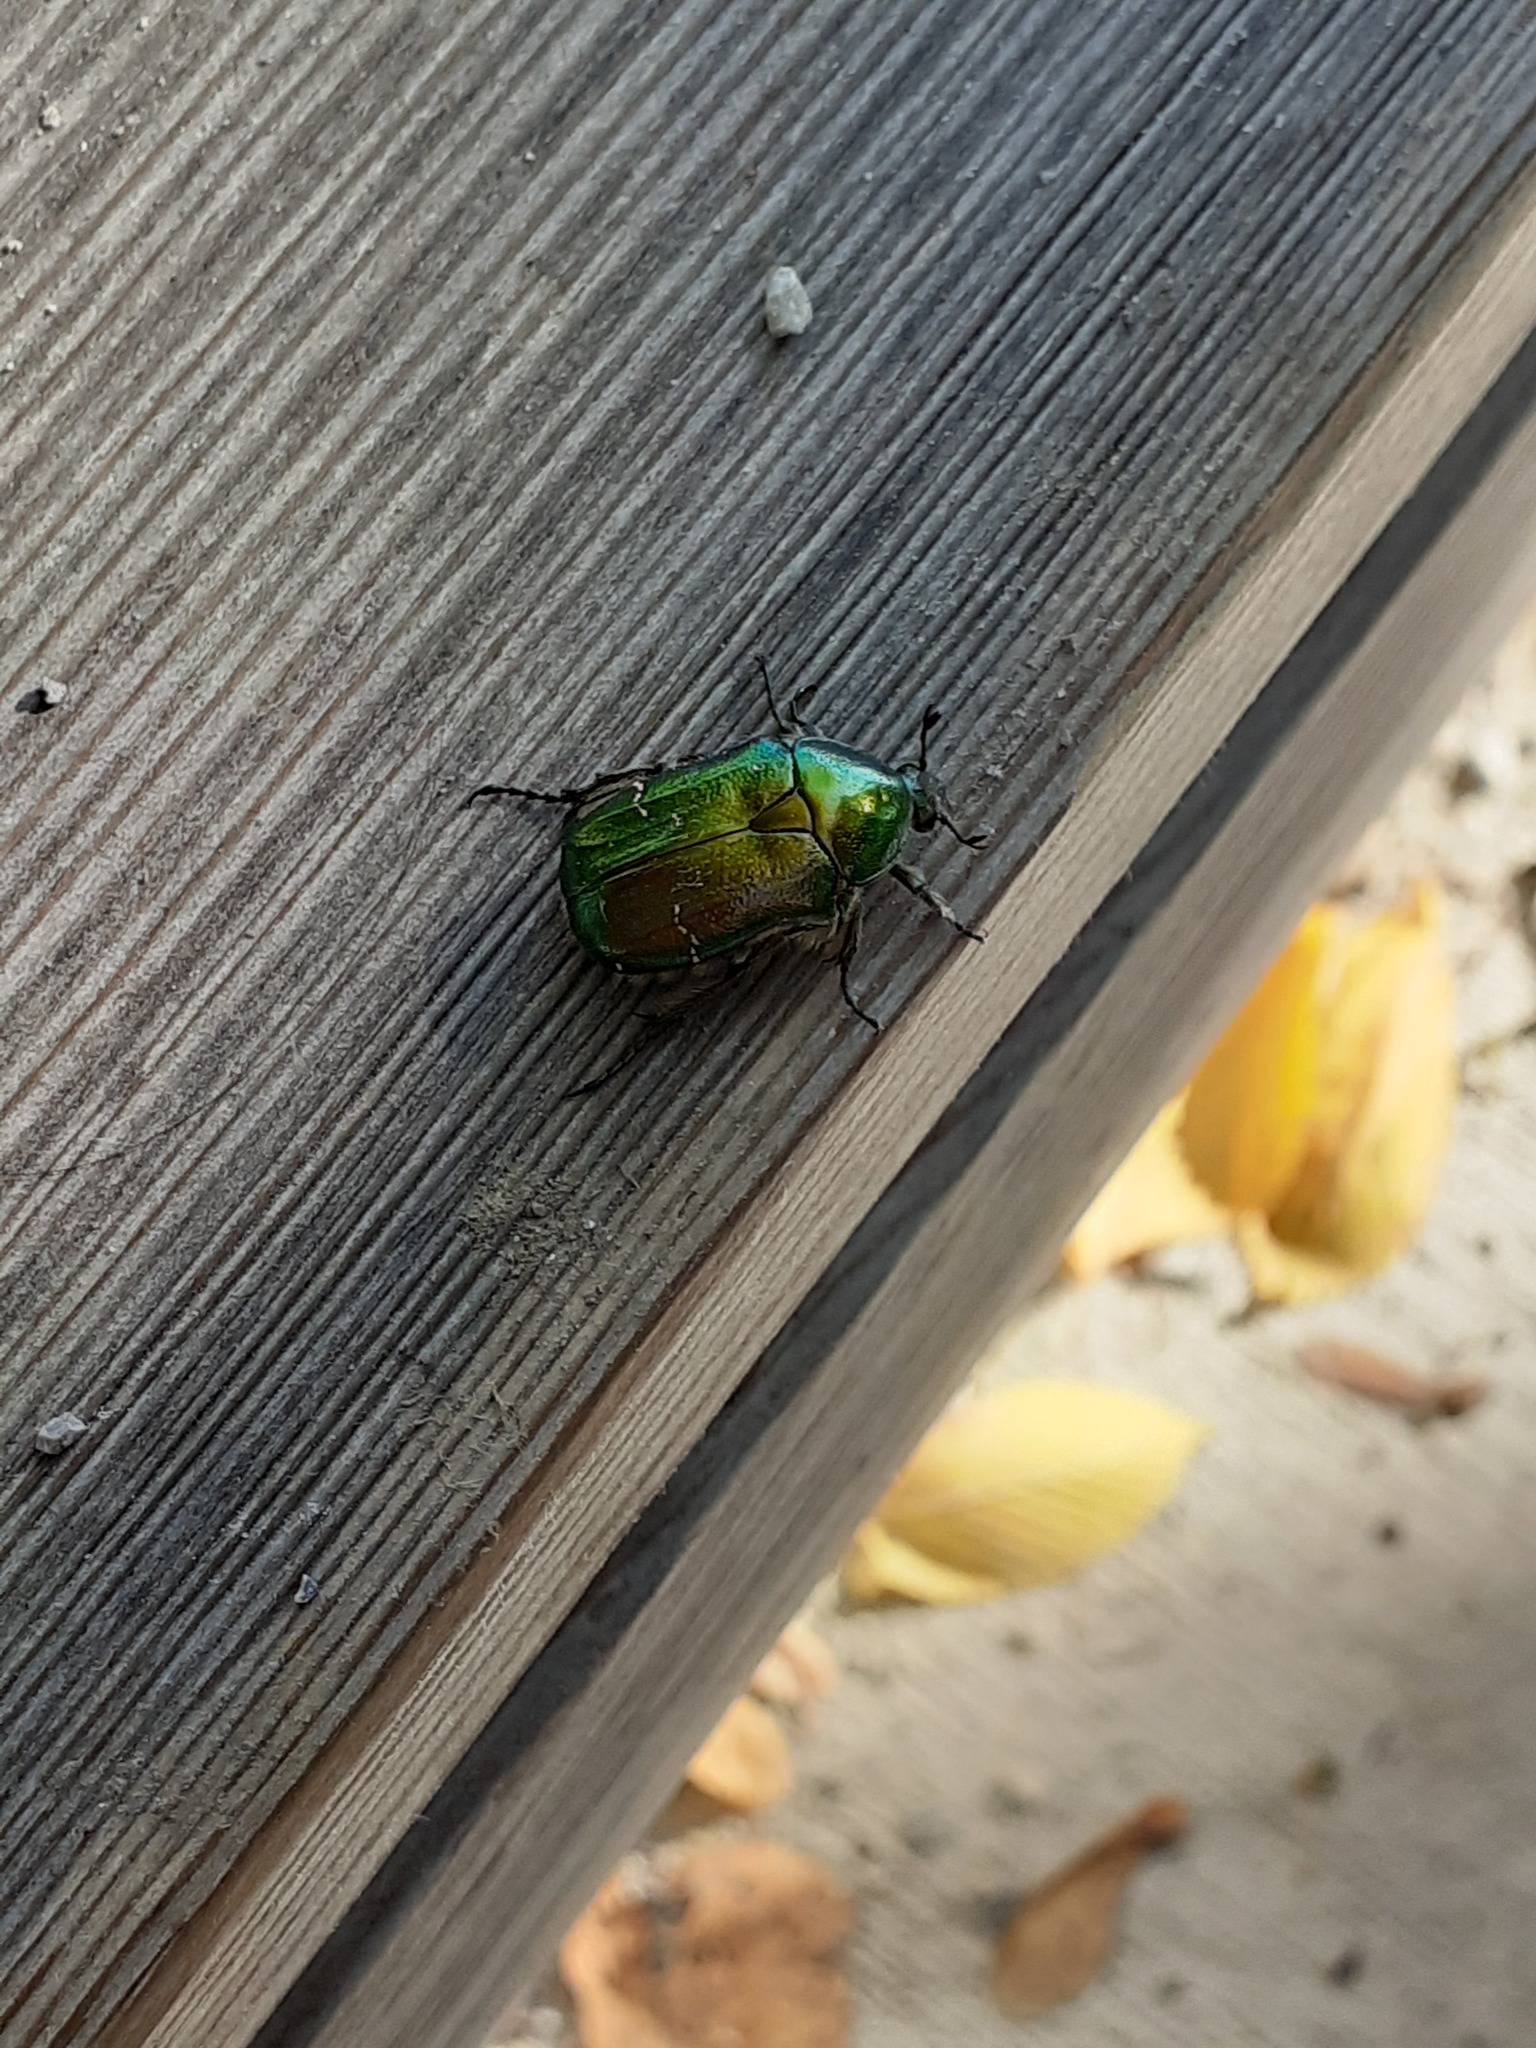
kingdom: Animalia
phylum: Arthropoda
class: Insecta
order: Coleoptera
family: Scarabaeidae
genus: Cetonia
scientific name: Cetonia aurata
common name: Rose chafer
